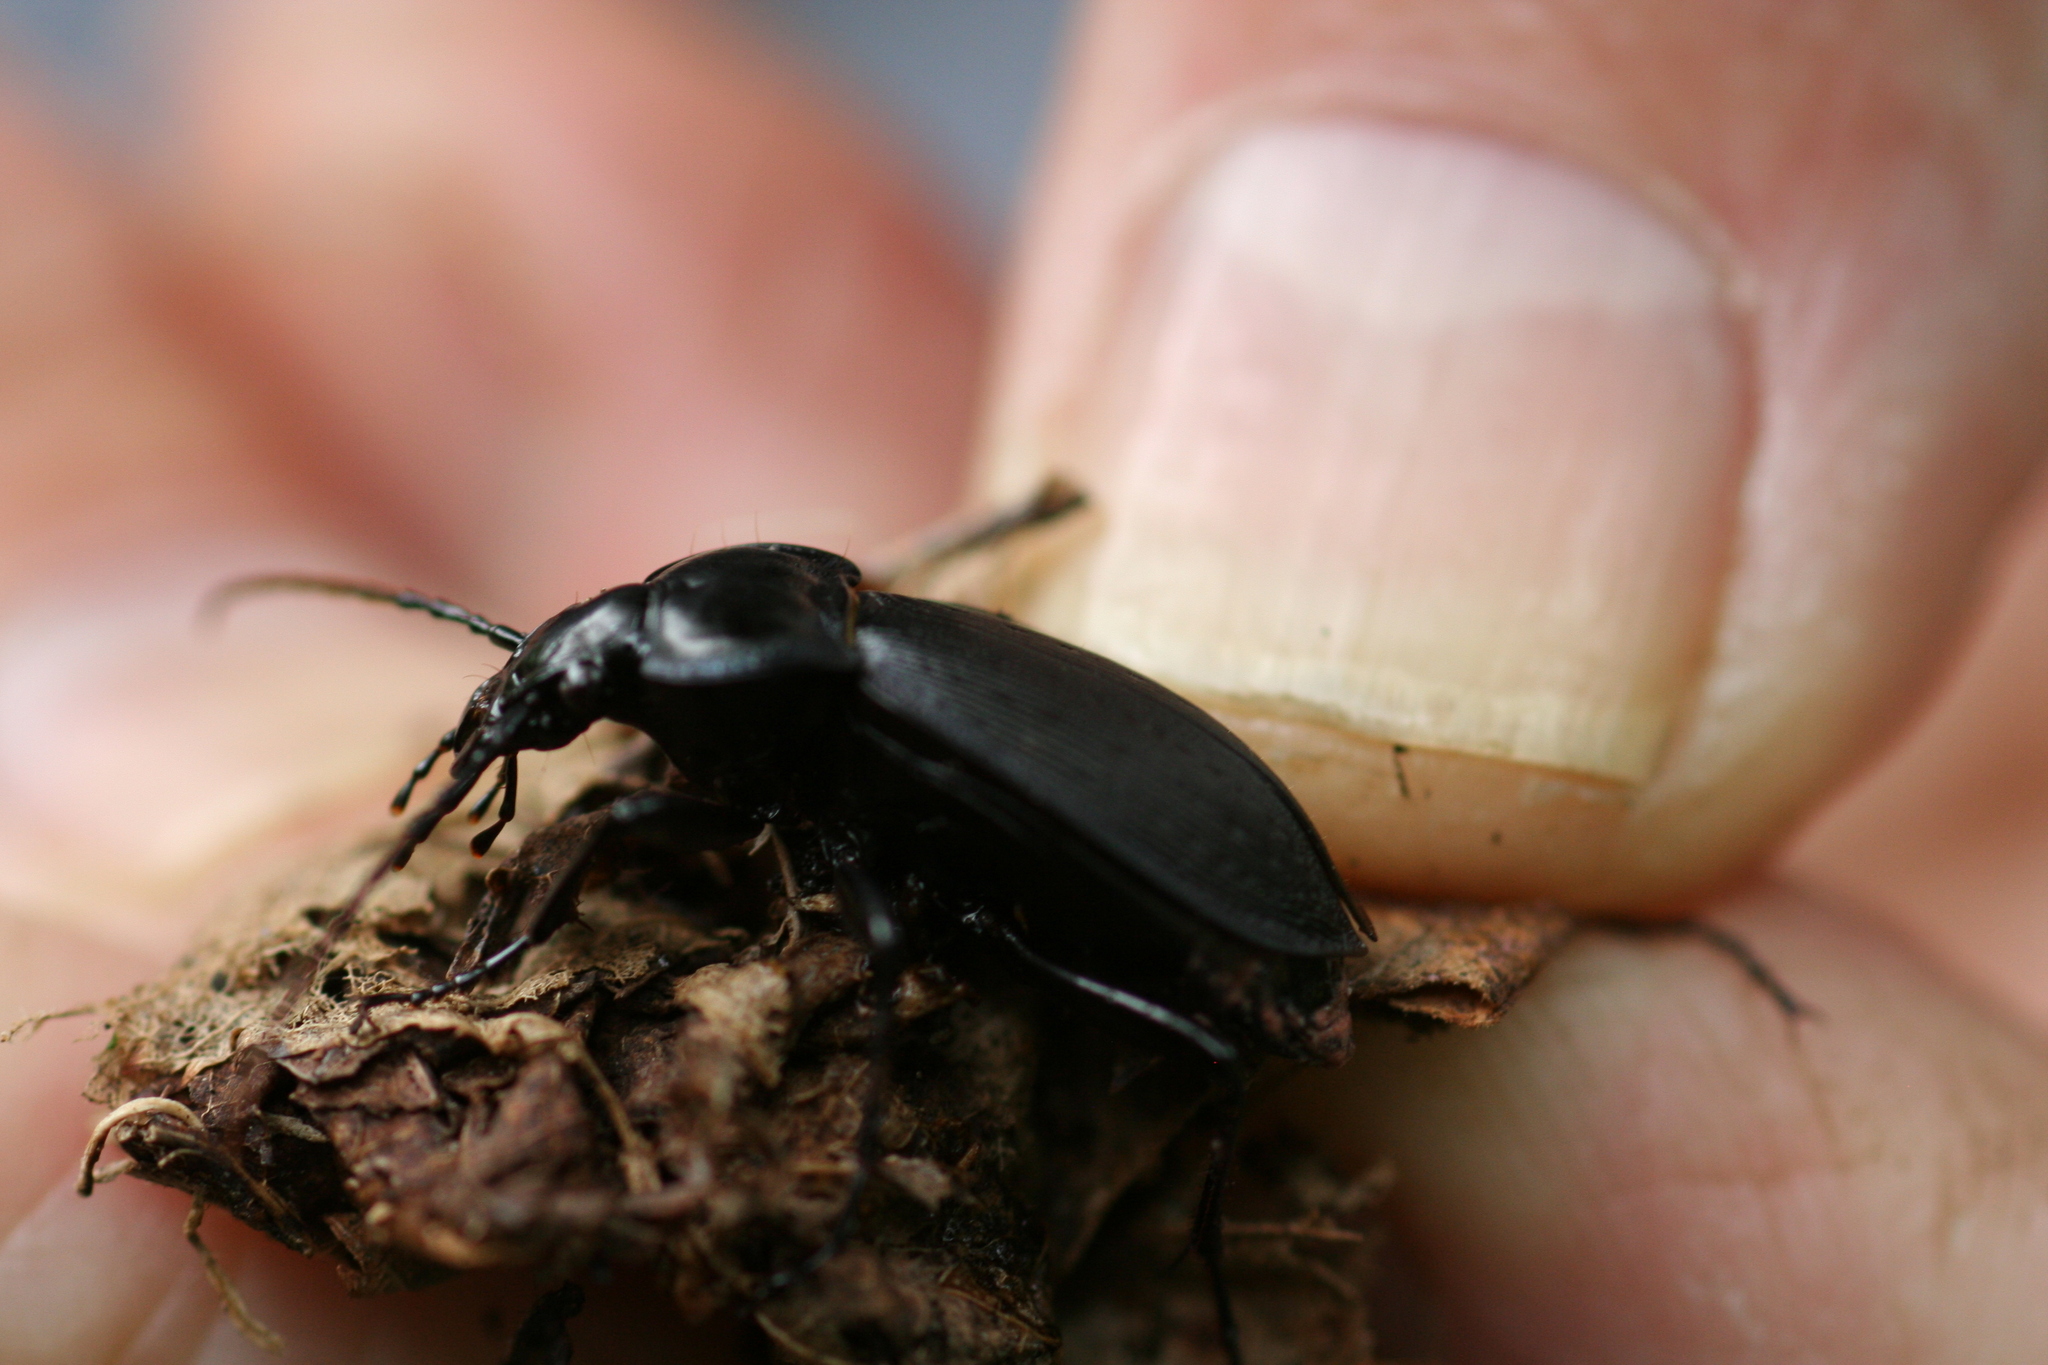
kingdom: Animalia
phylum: Arthropoda
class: Insecta
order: Coleoptera
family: Carabidae
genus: Carabus
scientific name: Carabus goryi
